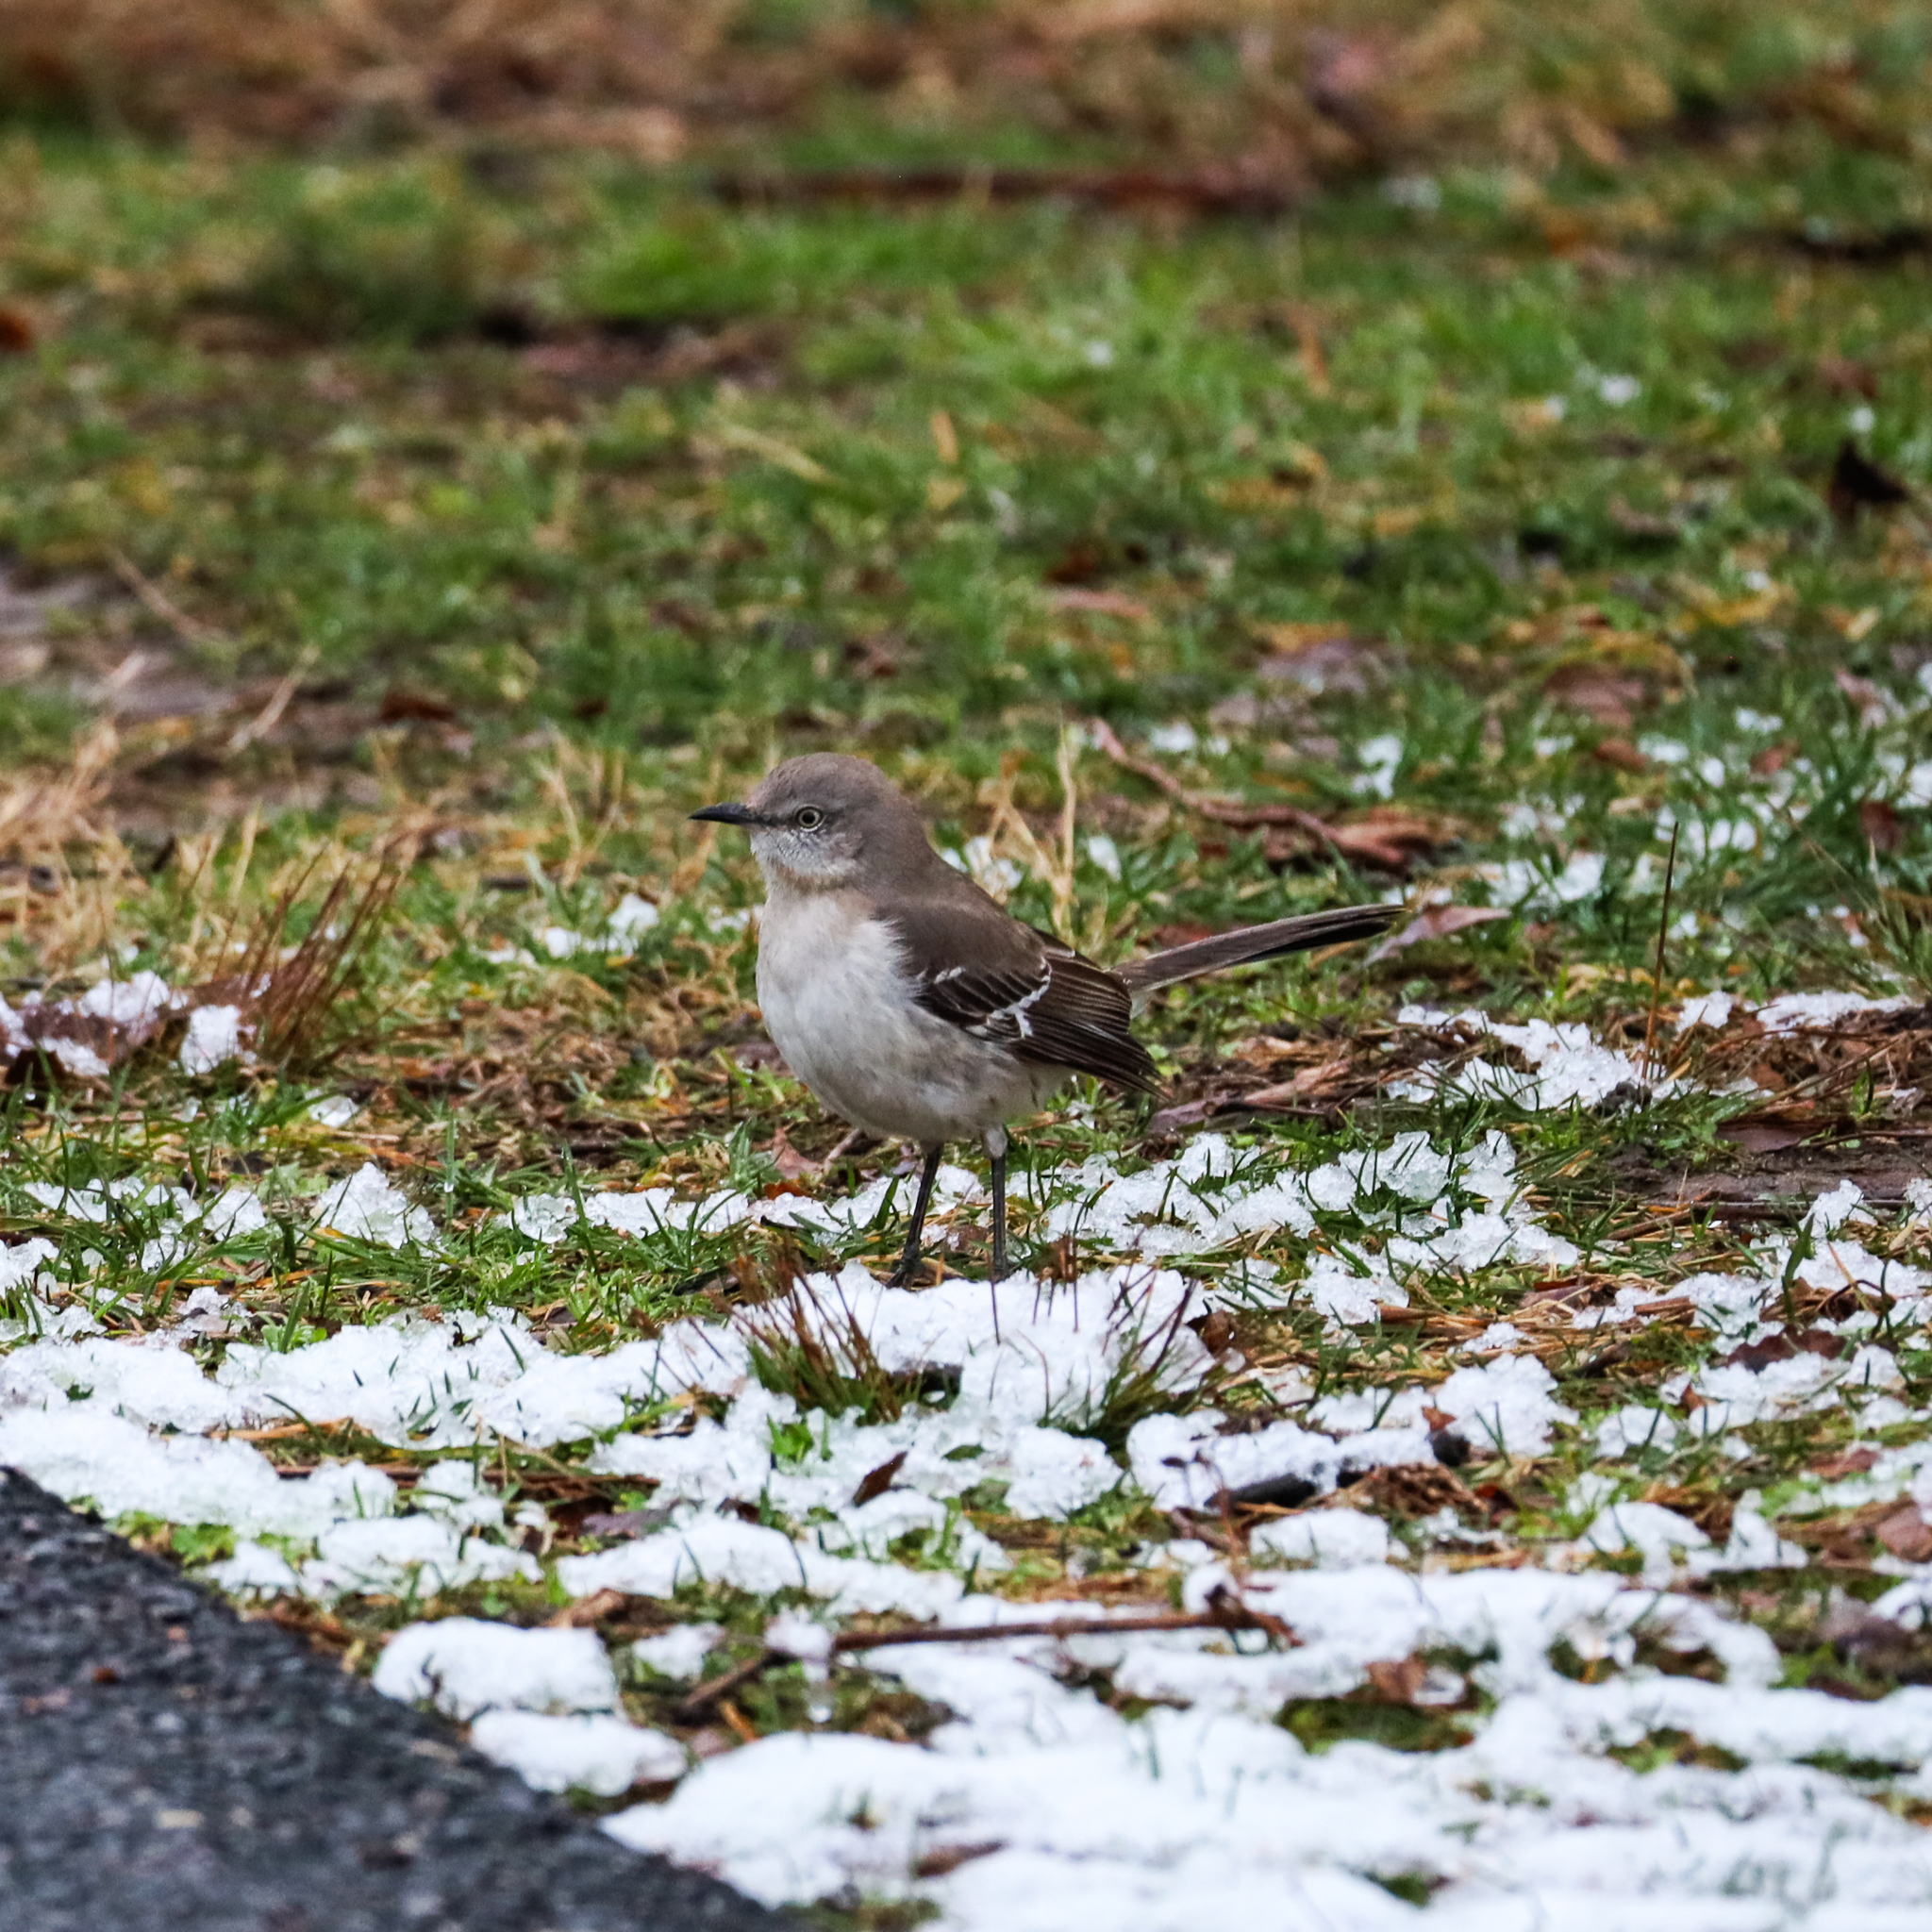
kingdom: Animalia
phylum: Chordata
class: Aves
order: Passeriformes
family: Mimidae
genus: Mimus
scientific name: Mimus polyglottos
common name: Northern mockingbird
